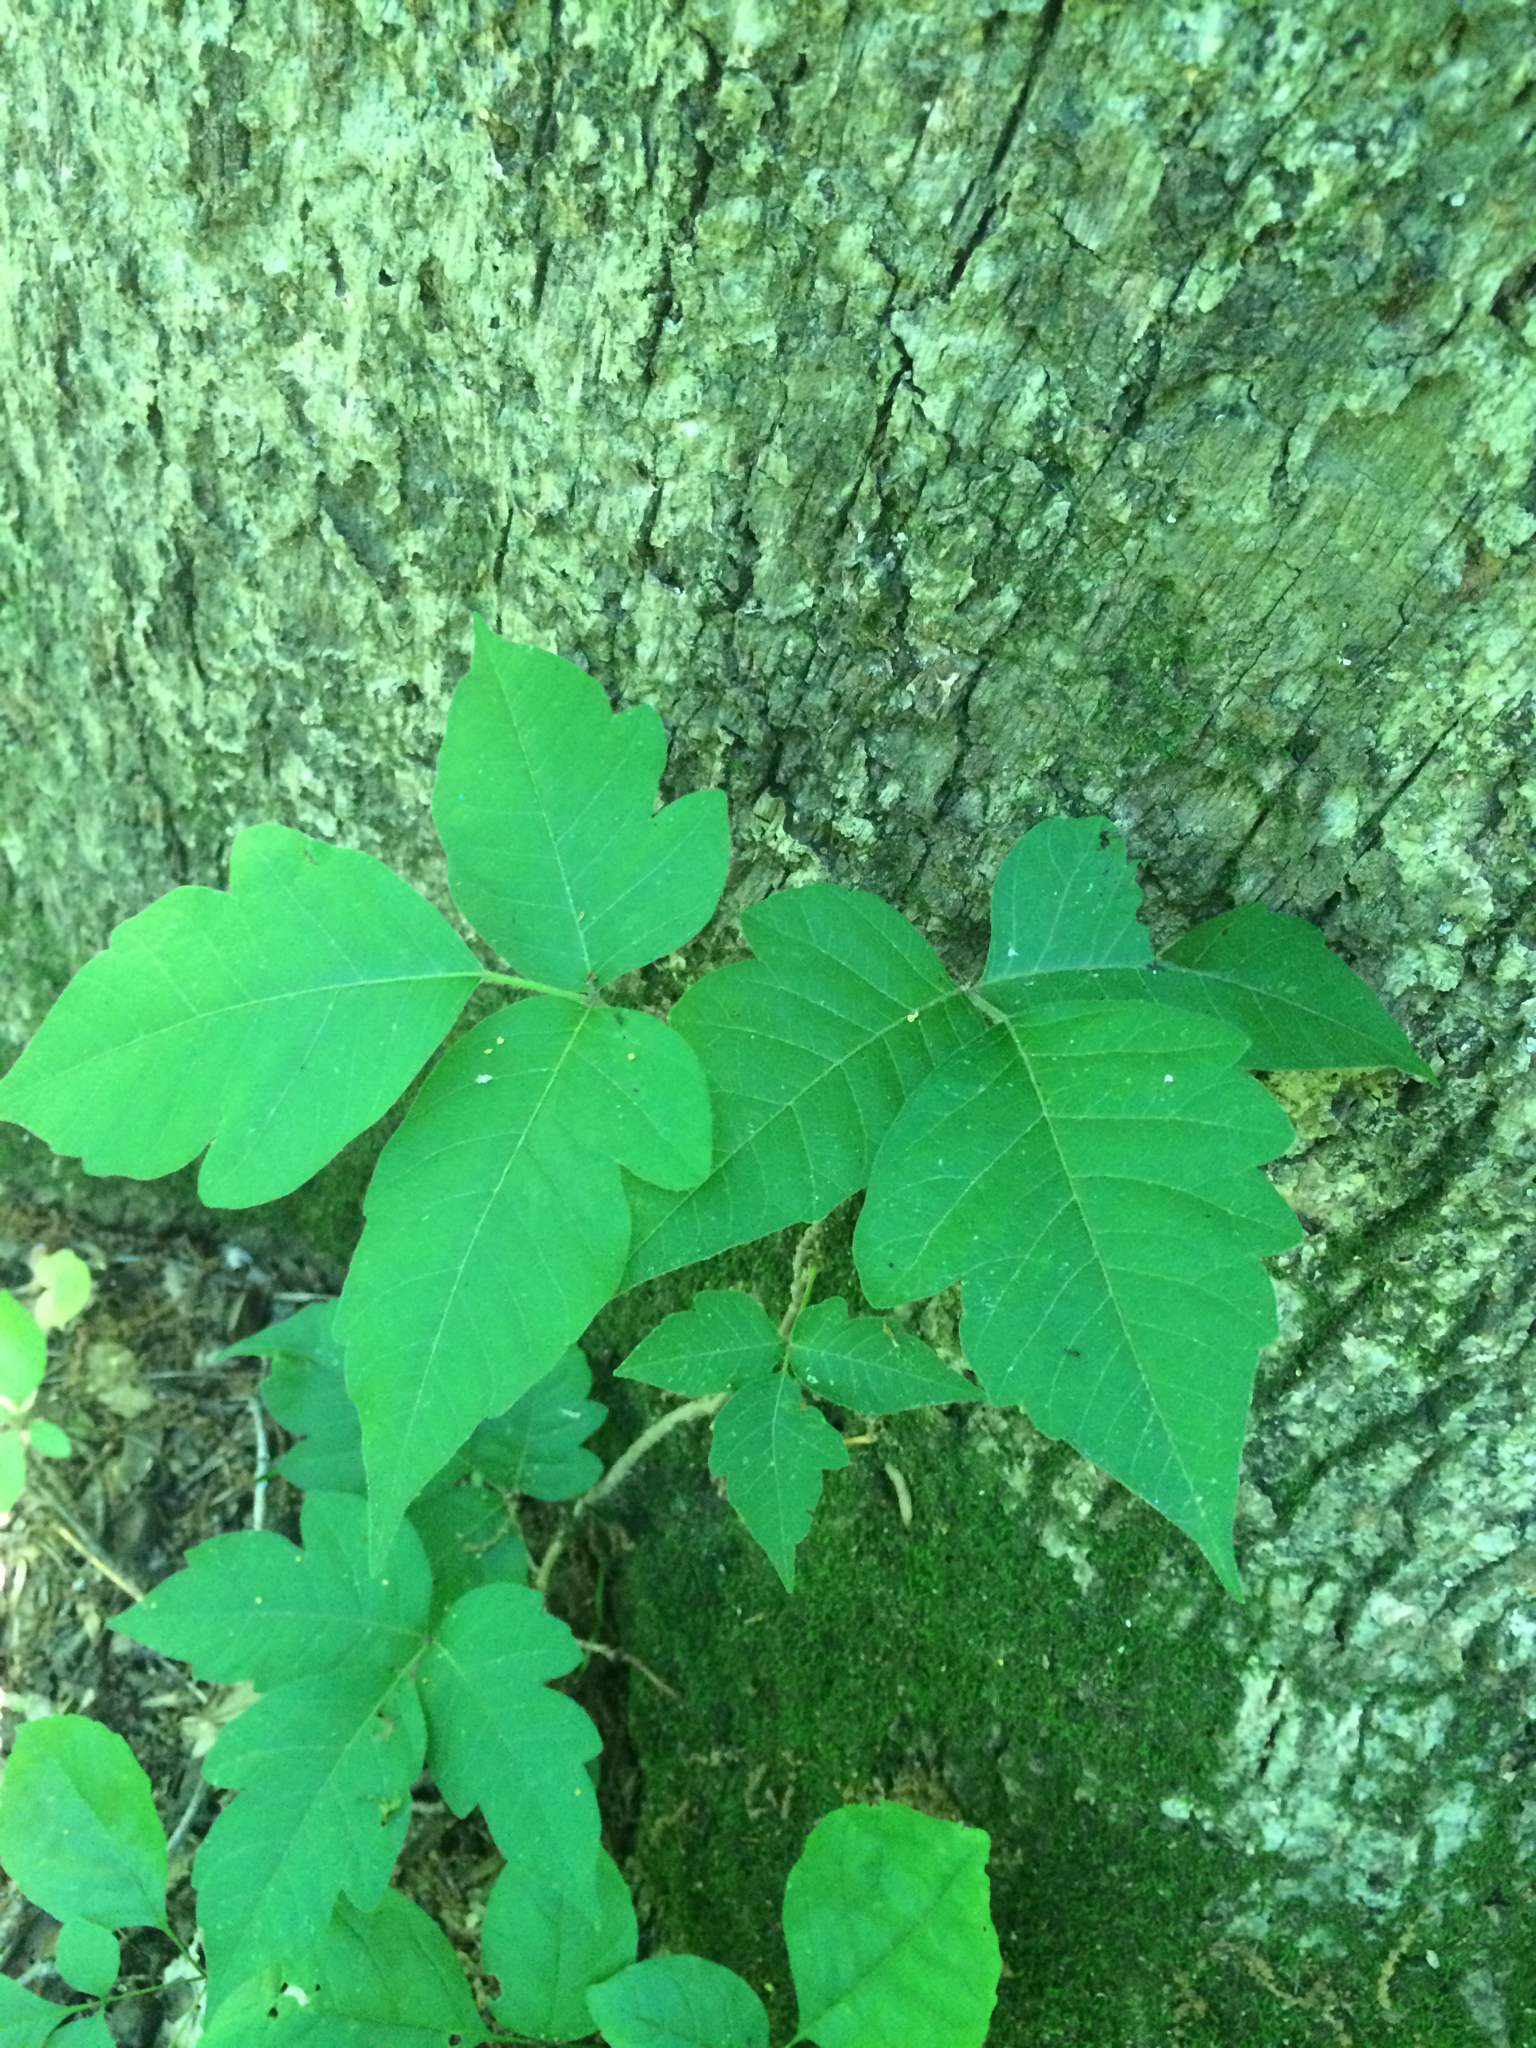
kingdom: Plantae
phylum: Tracheophyta
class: Magnoliopsida
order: Sapindales
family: Anacardiaceae
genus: Toxicodendron
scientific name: Toxicodendron radicans
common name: Poison ivy
